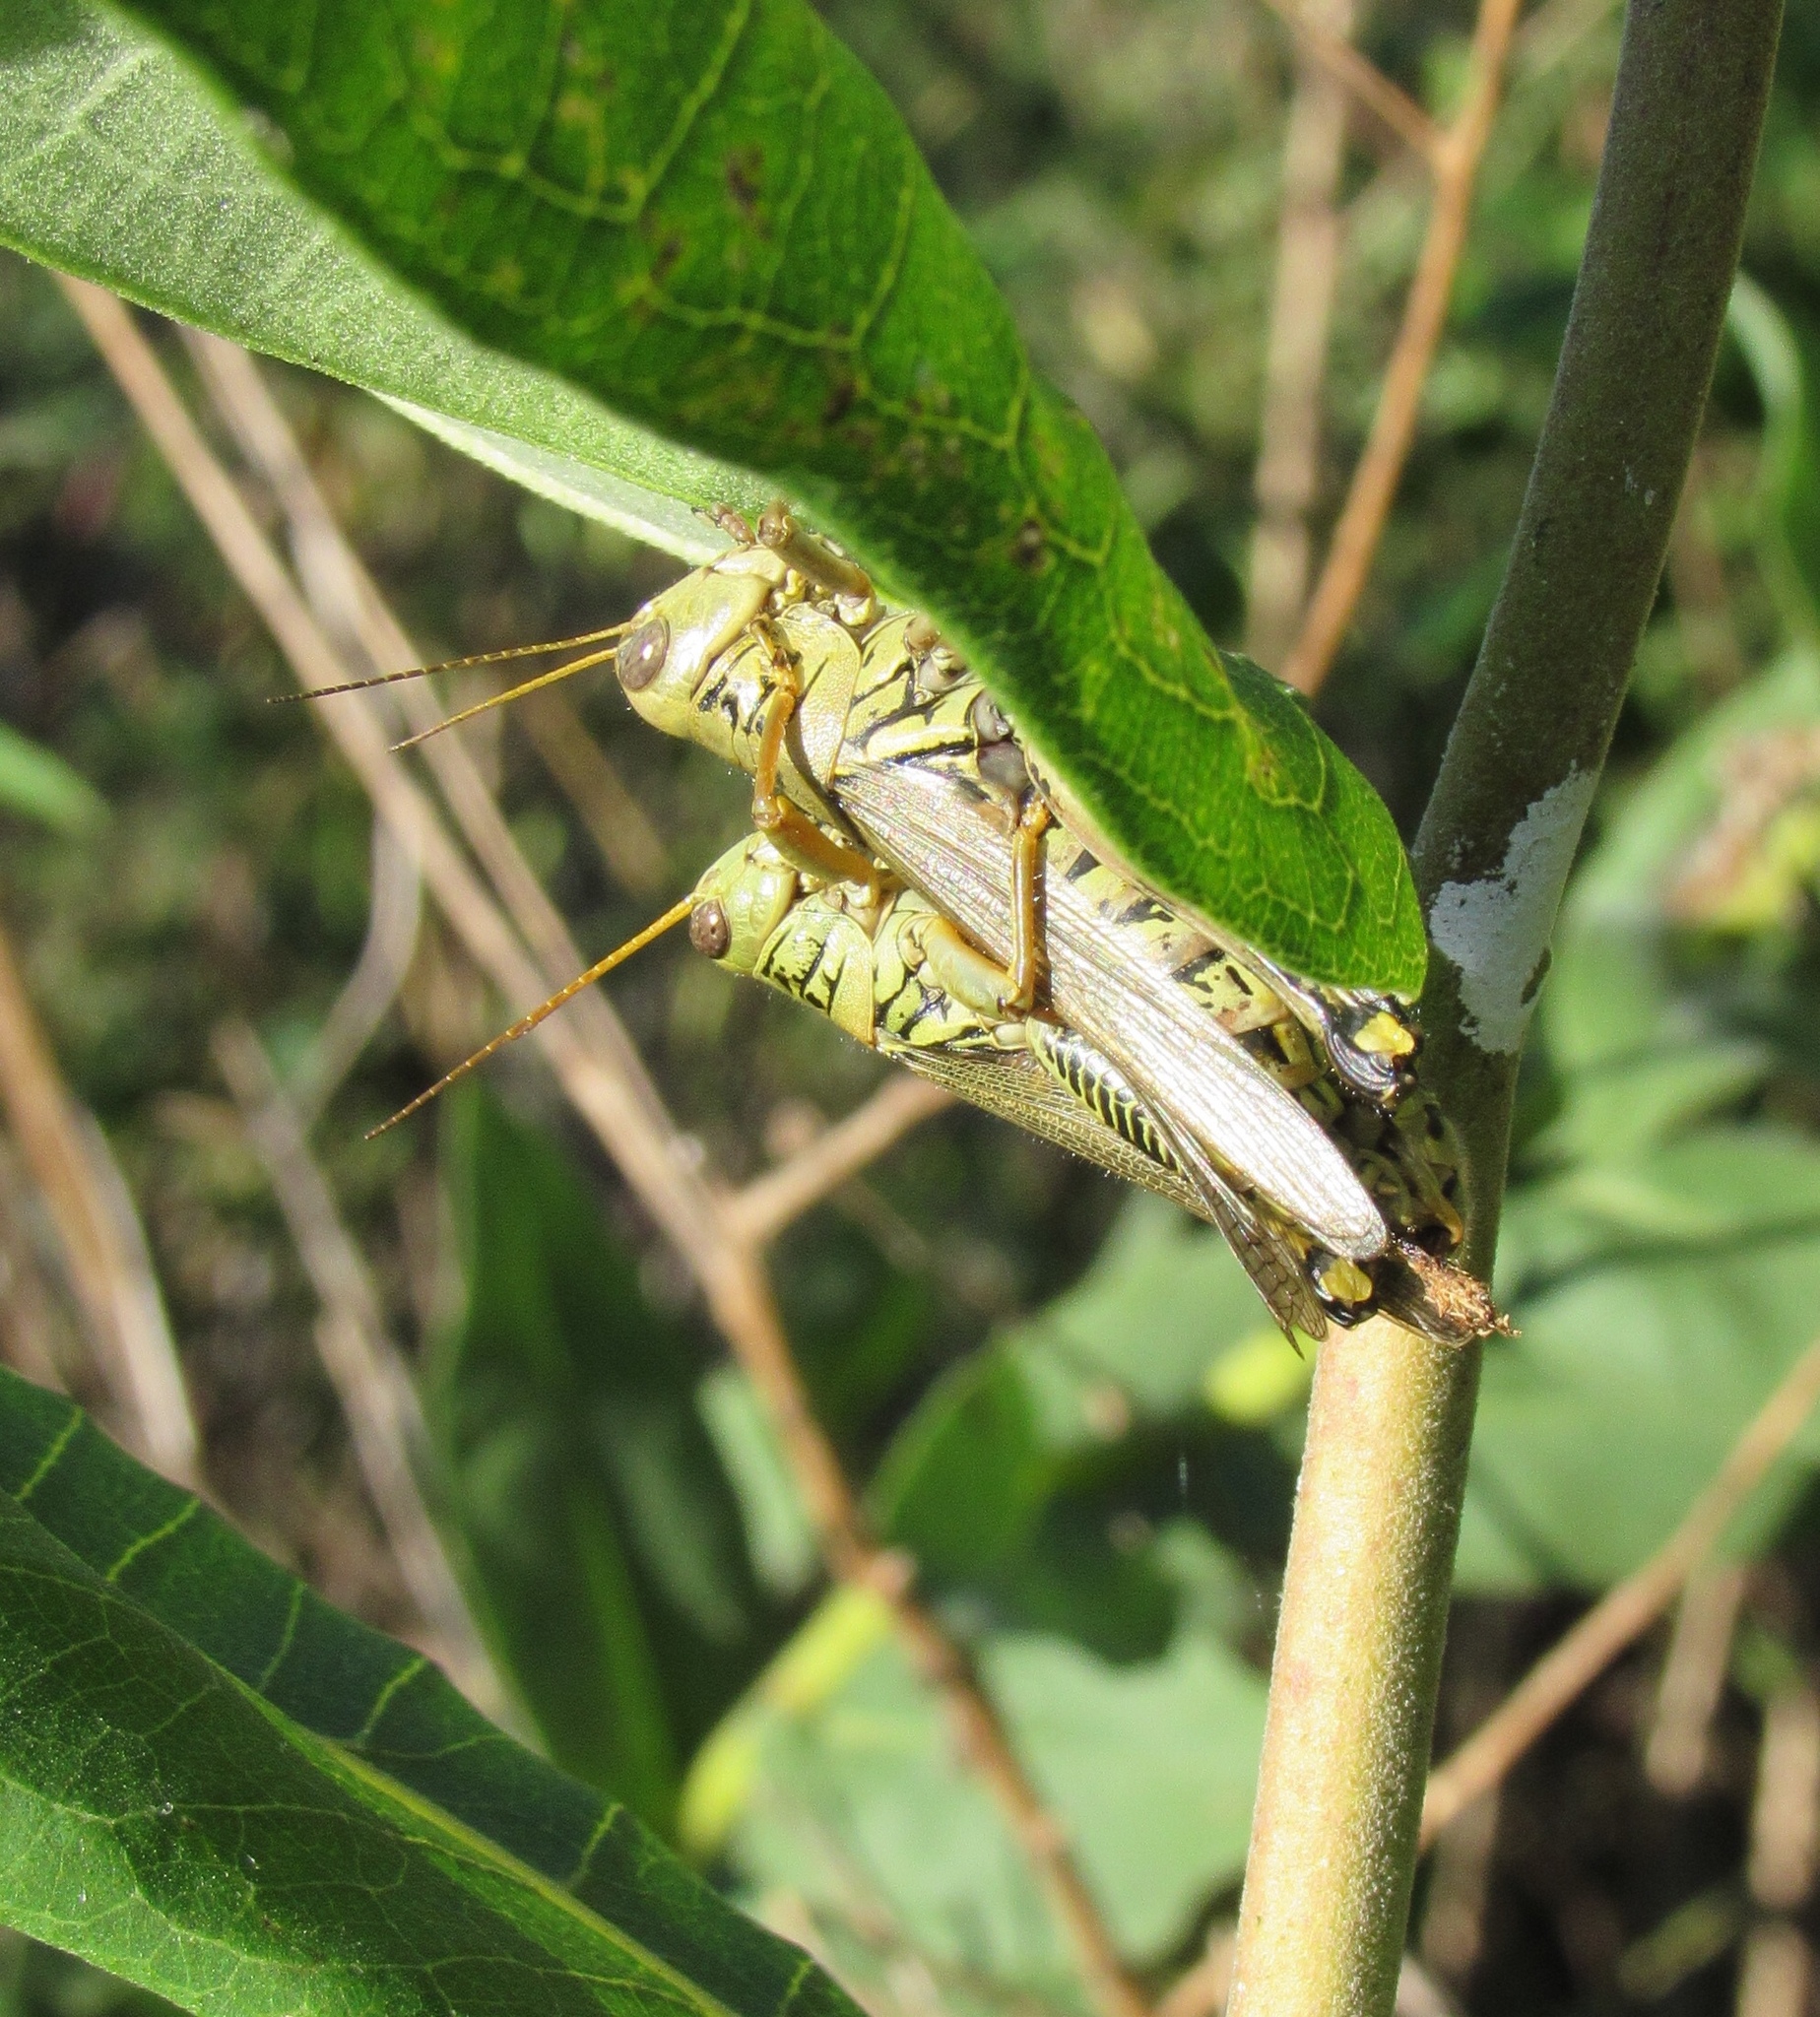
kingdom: Animalia
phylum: Arthropoda
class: Insecta
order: Orthoptera
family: Acrididae
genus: Melanoplus
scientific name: Melanoplus differentialis
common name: Differential grasshopper
